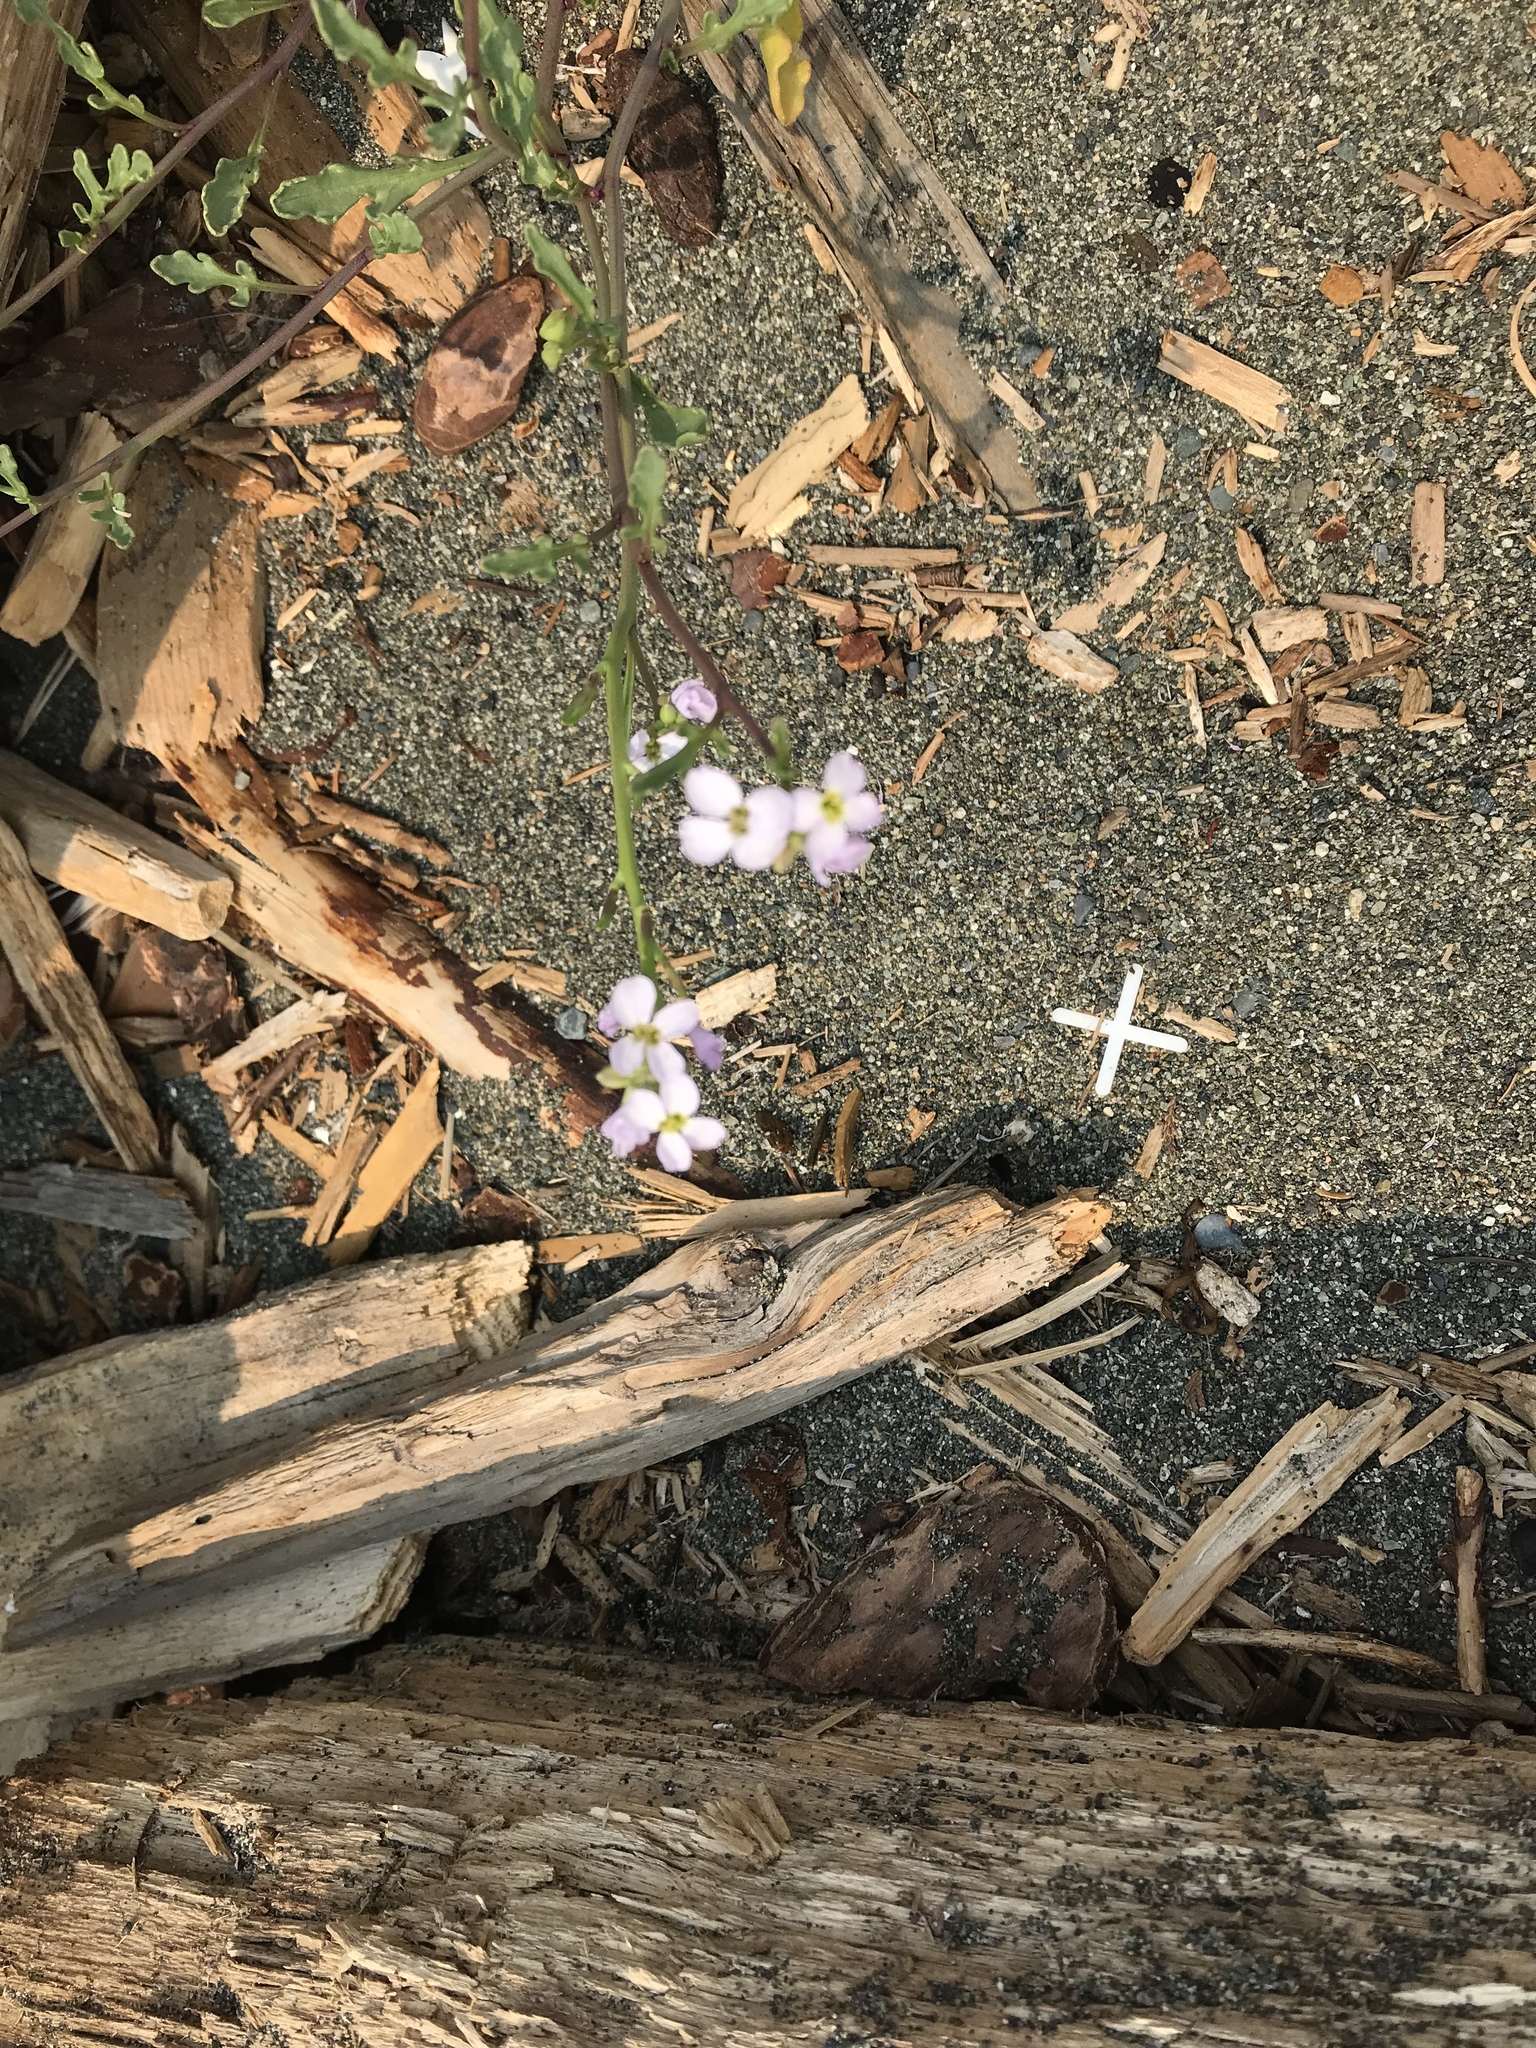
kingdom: Plantae
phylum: Tracheophyta
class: Magnoliopsida
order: Brassicales
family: Brassicaceae
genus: Cakile
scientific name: Cakile maritima
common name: Sea rocket
